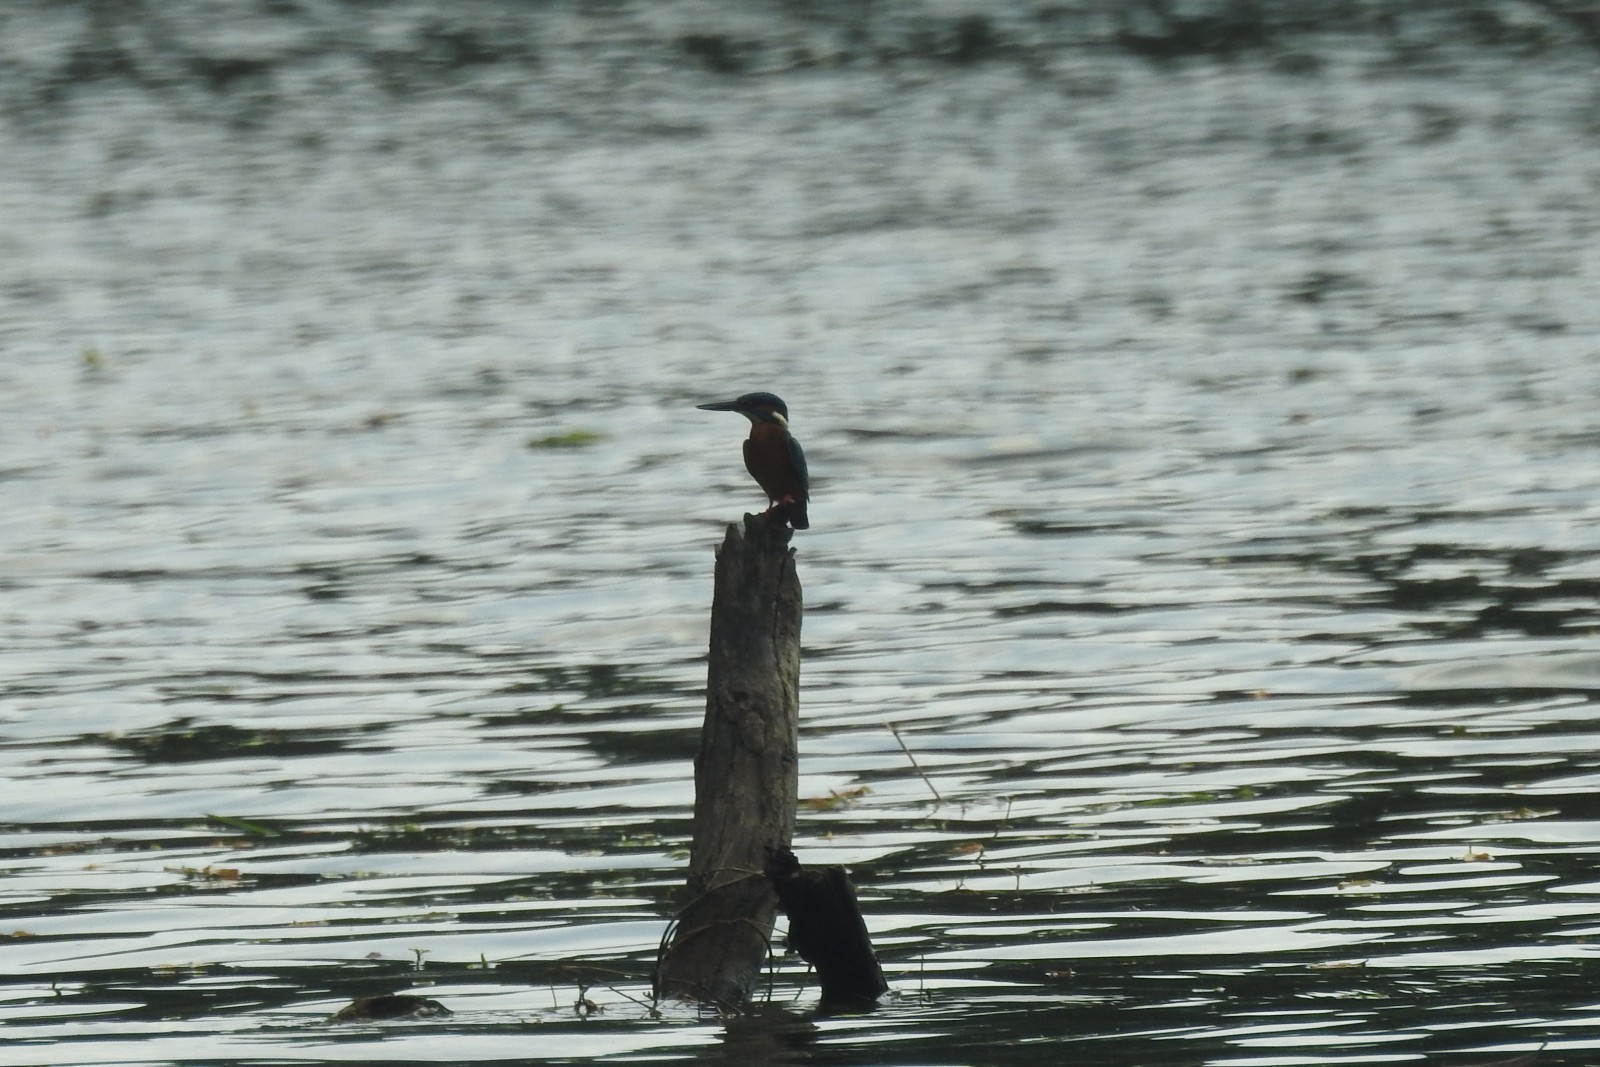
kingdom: Animalia
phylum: Chordata
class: Aves
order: Coraciiformes
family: Alcedinidae
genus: Alcedo
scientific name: Alcedo atthis
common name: Common kingfisher
